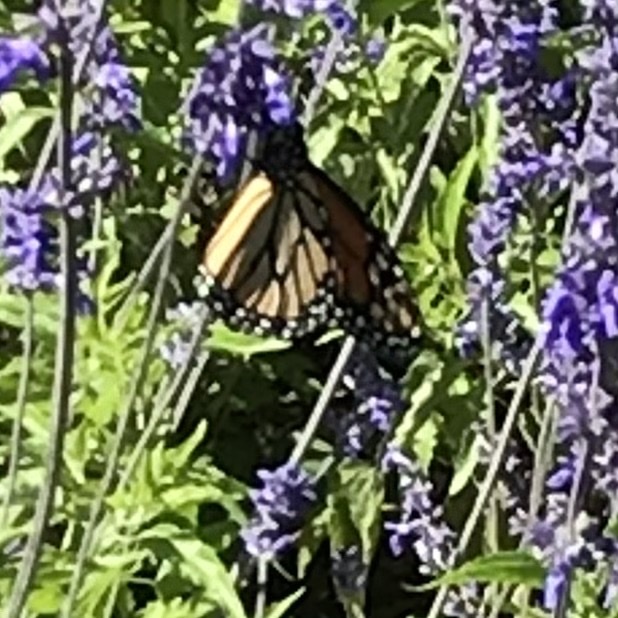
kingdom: Animalia
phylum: Arthropoda
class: Insecta
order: Lepidoptera
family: Nymphalidae
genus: Danaus
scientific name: Danaus plexippus
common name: Monarch
